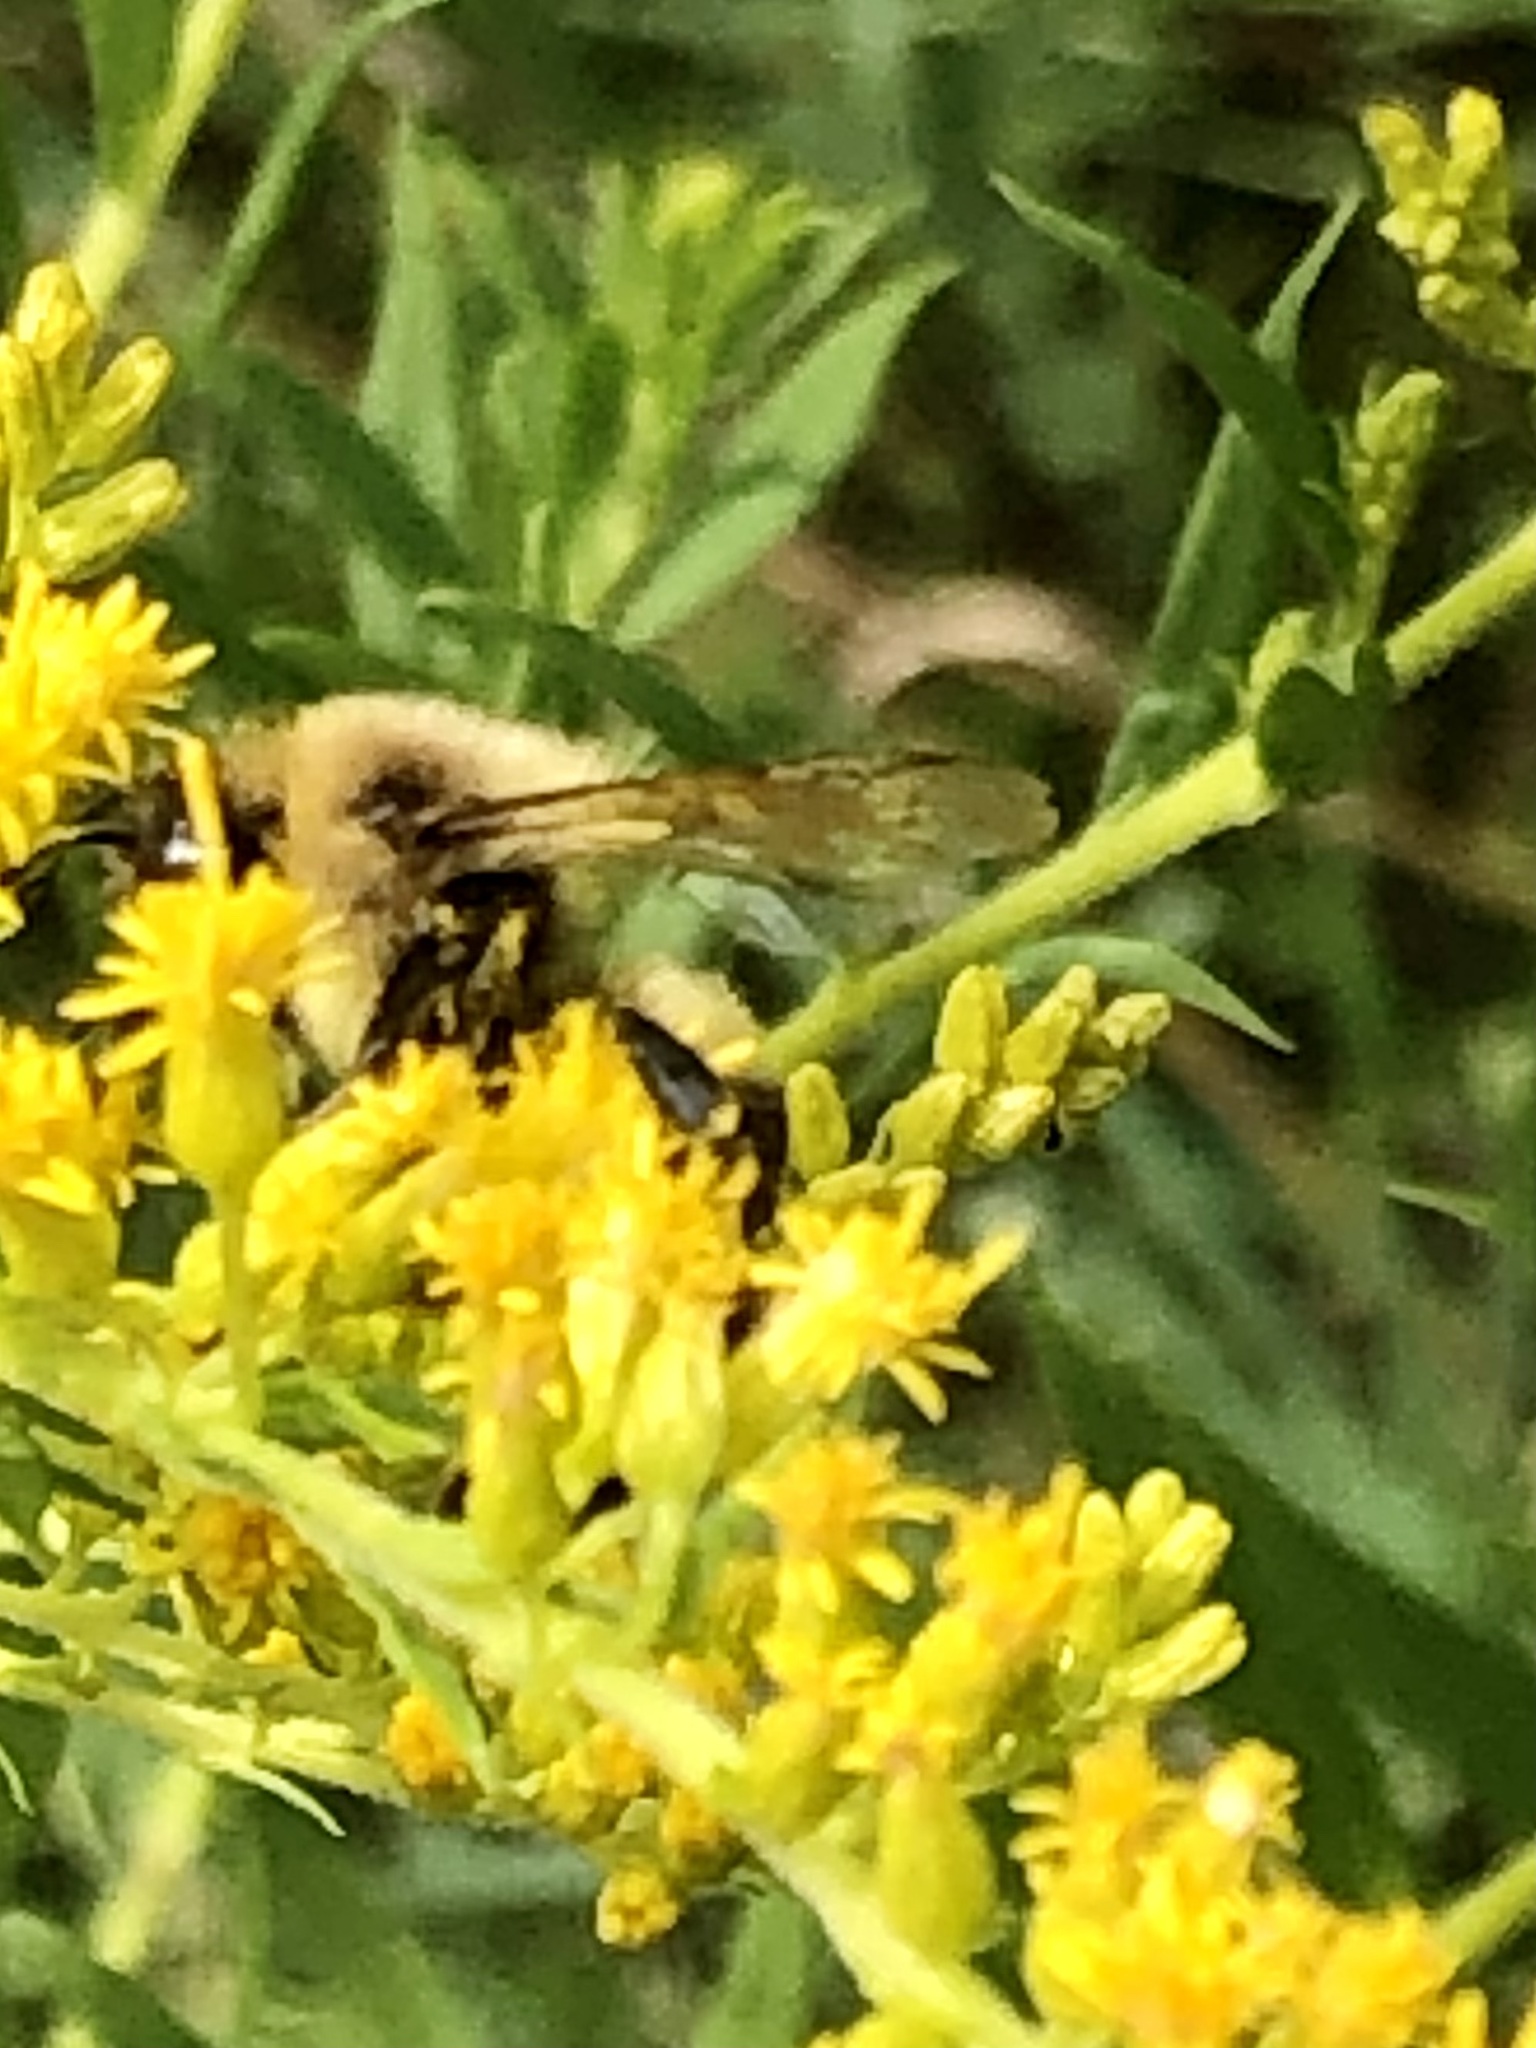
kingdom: Animalia
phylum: Arthropoda
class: Insecta
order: Hymenoptera
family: Apidae
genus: Bombus
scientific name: Bombus impatiens
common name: Common eastern bumble bee
